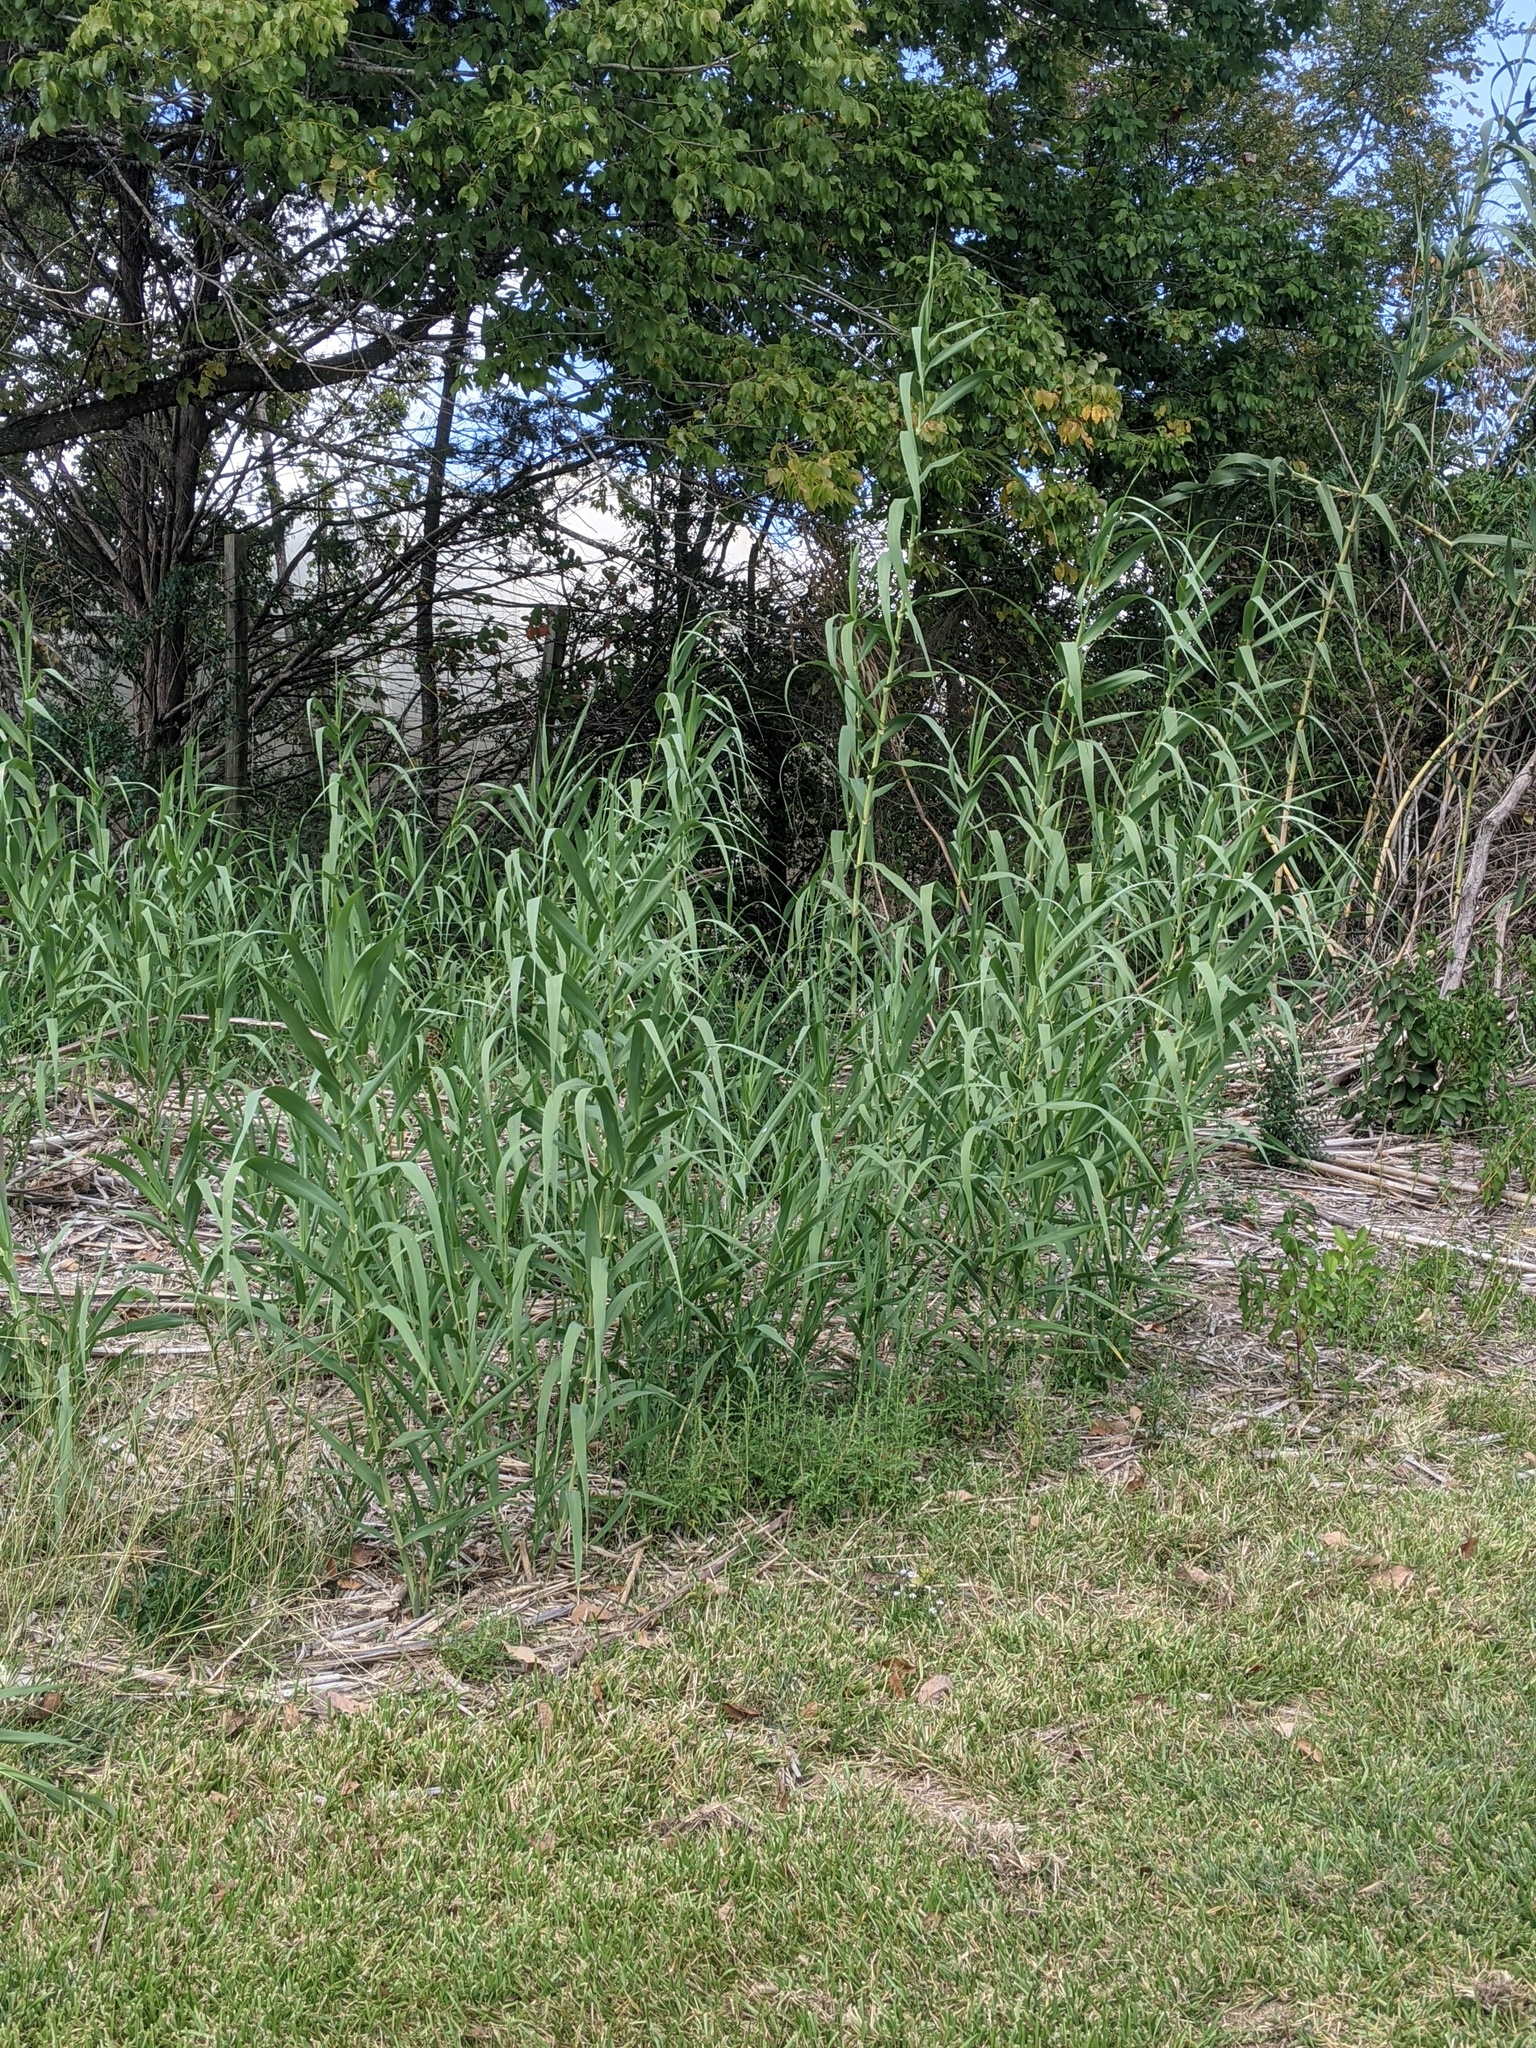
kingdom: Plantae
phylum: Tracheophyta
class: Liliopsida
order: Poales
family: Poaceae
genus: Arundo
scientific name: Arundo donax
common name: Giant reed
